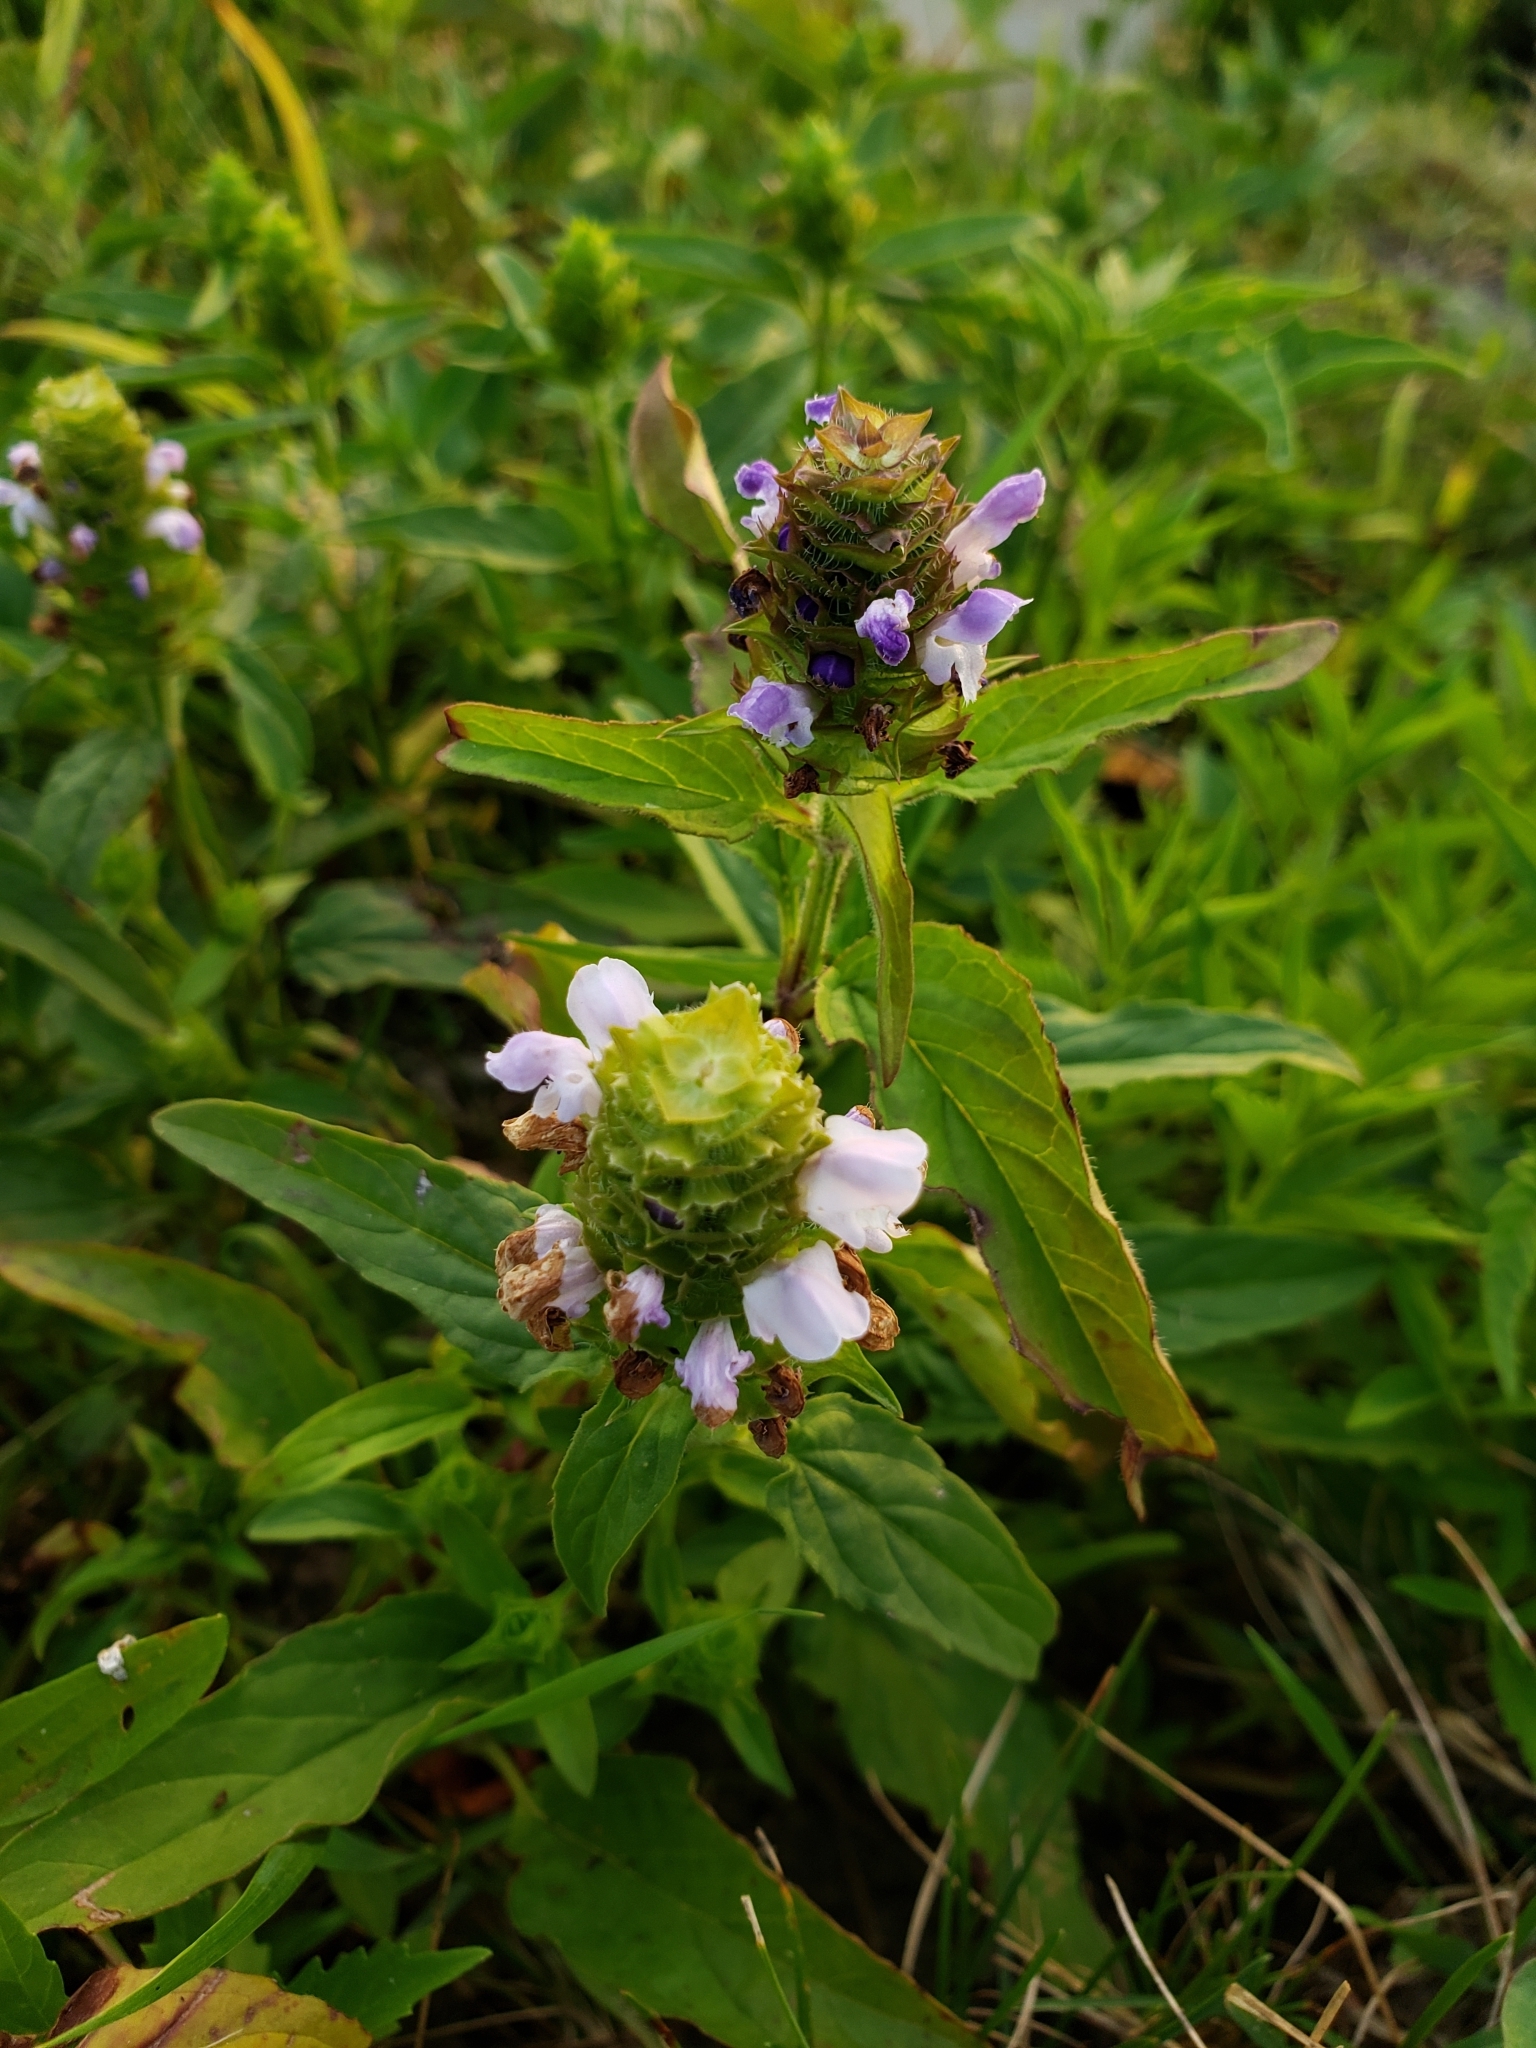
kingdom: Plantae
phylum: Tracheophyta
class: Magnoliopsida
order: Lamiales
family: Lamiaceae
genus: Prunella
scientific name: Prunella vulgaris
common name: Heal-all
